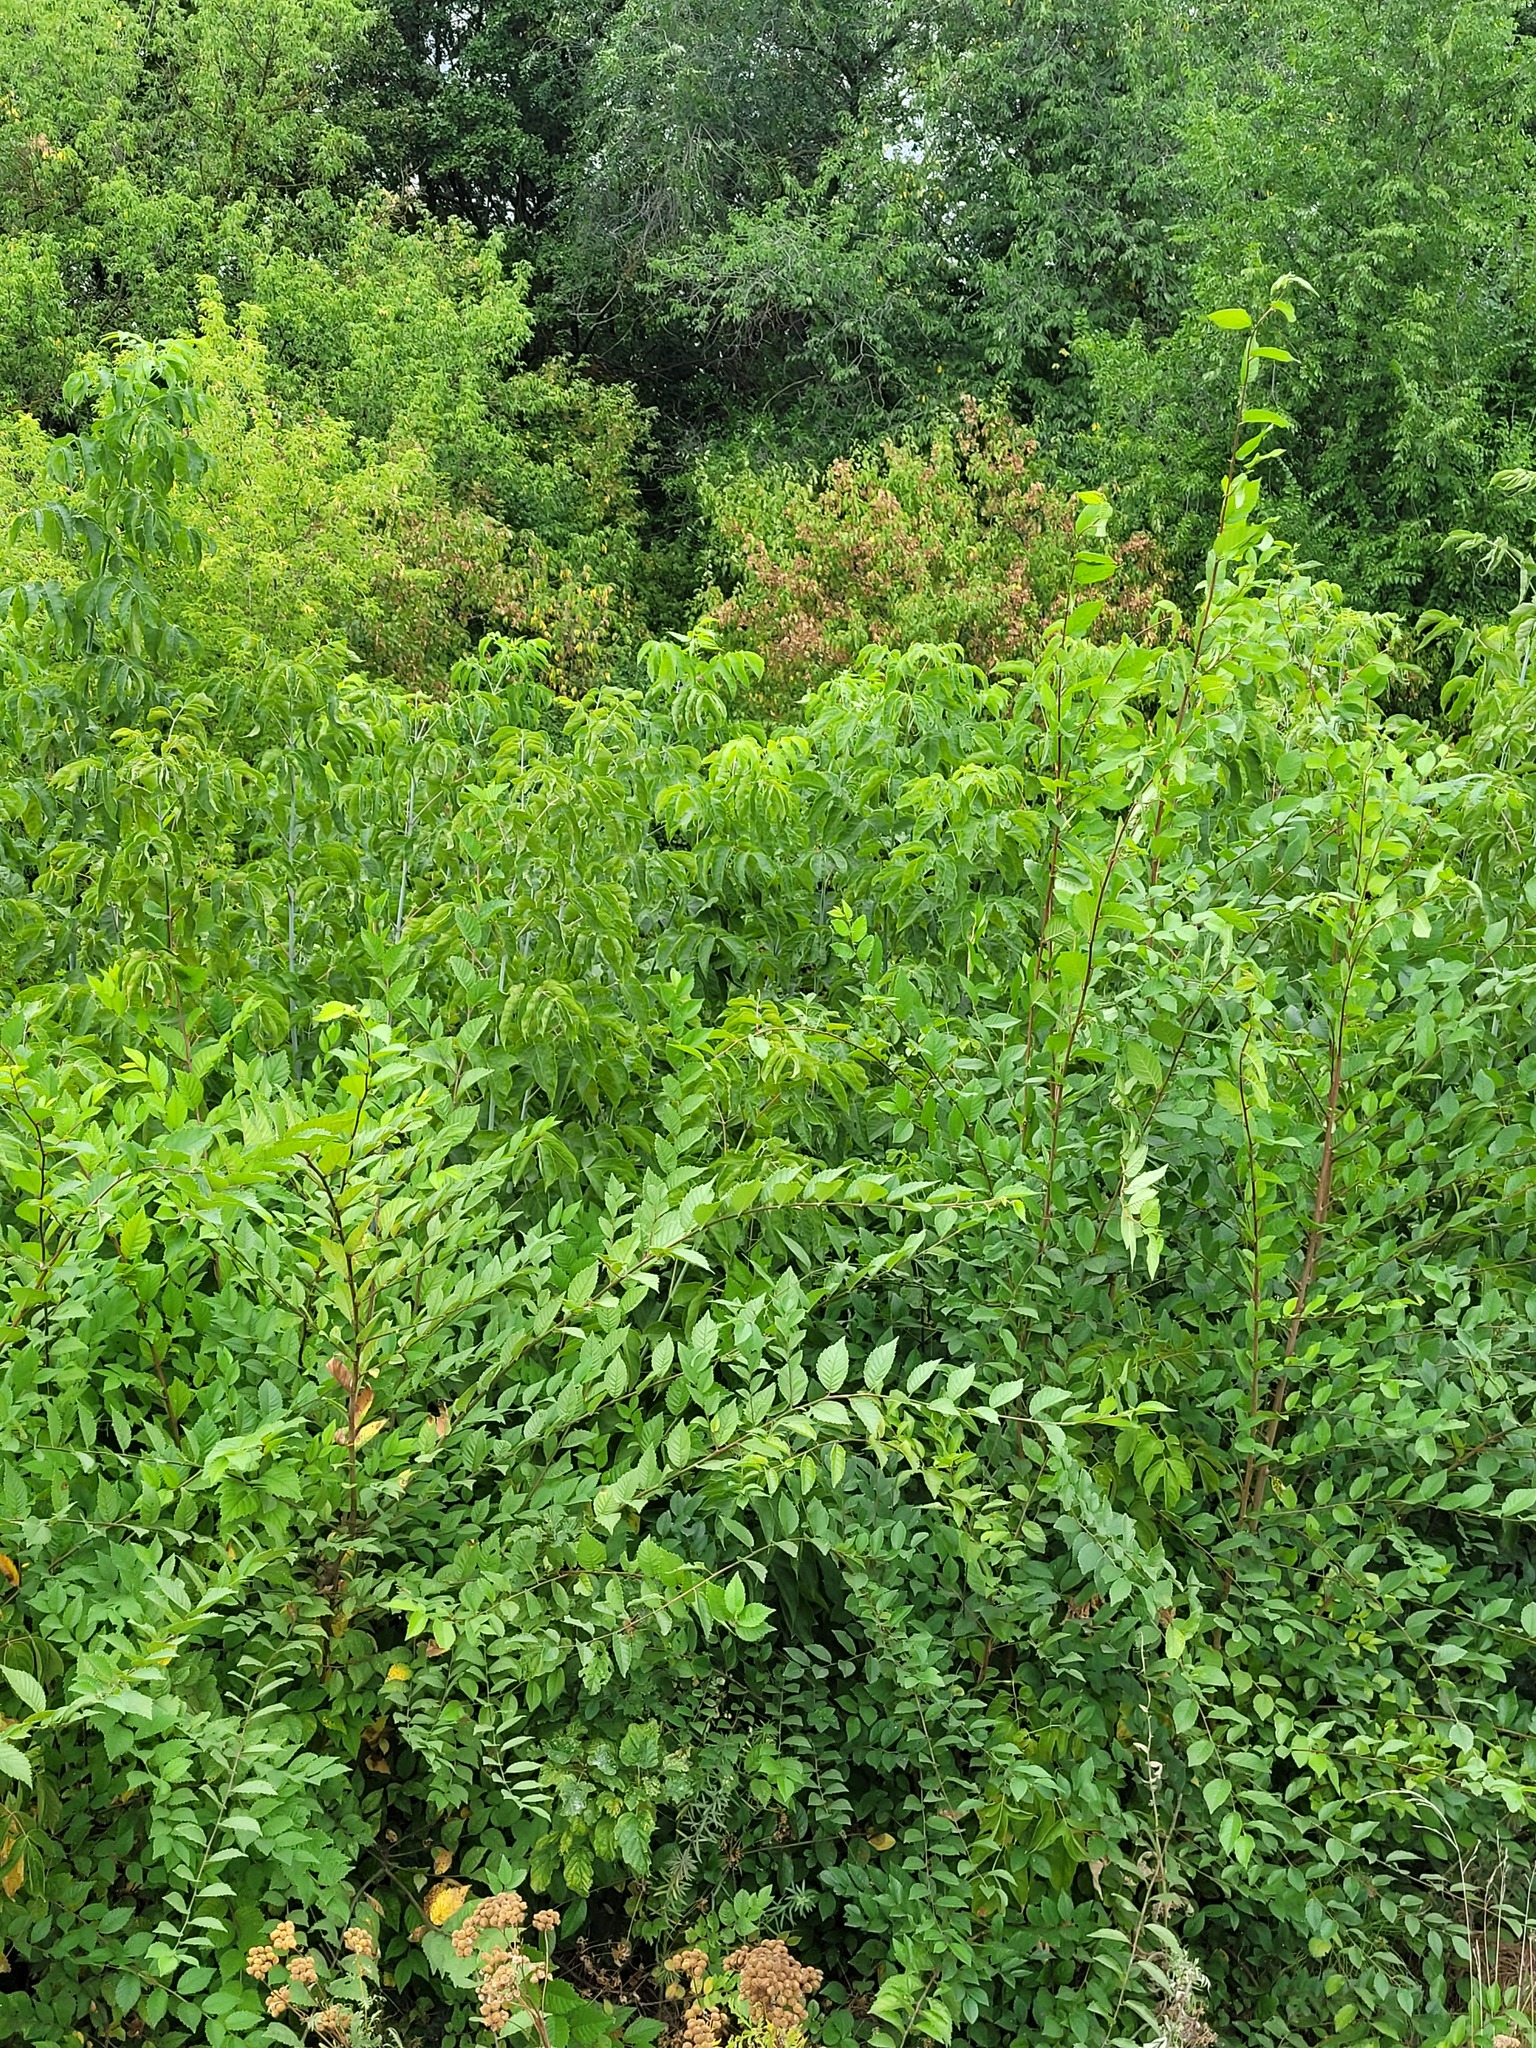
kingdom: Plantae
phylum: Tracheophyta
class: Magnoliopsida
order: Rosales
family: Ulmaceae
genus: Ulmus
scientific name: Ulmus pumila
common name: Siberian elm
